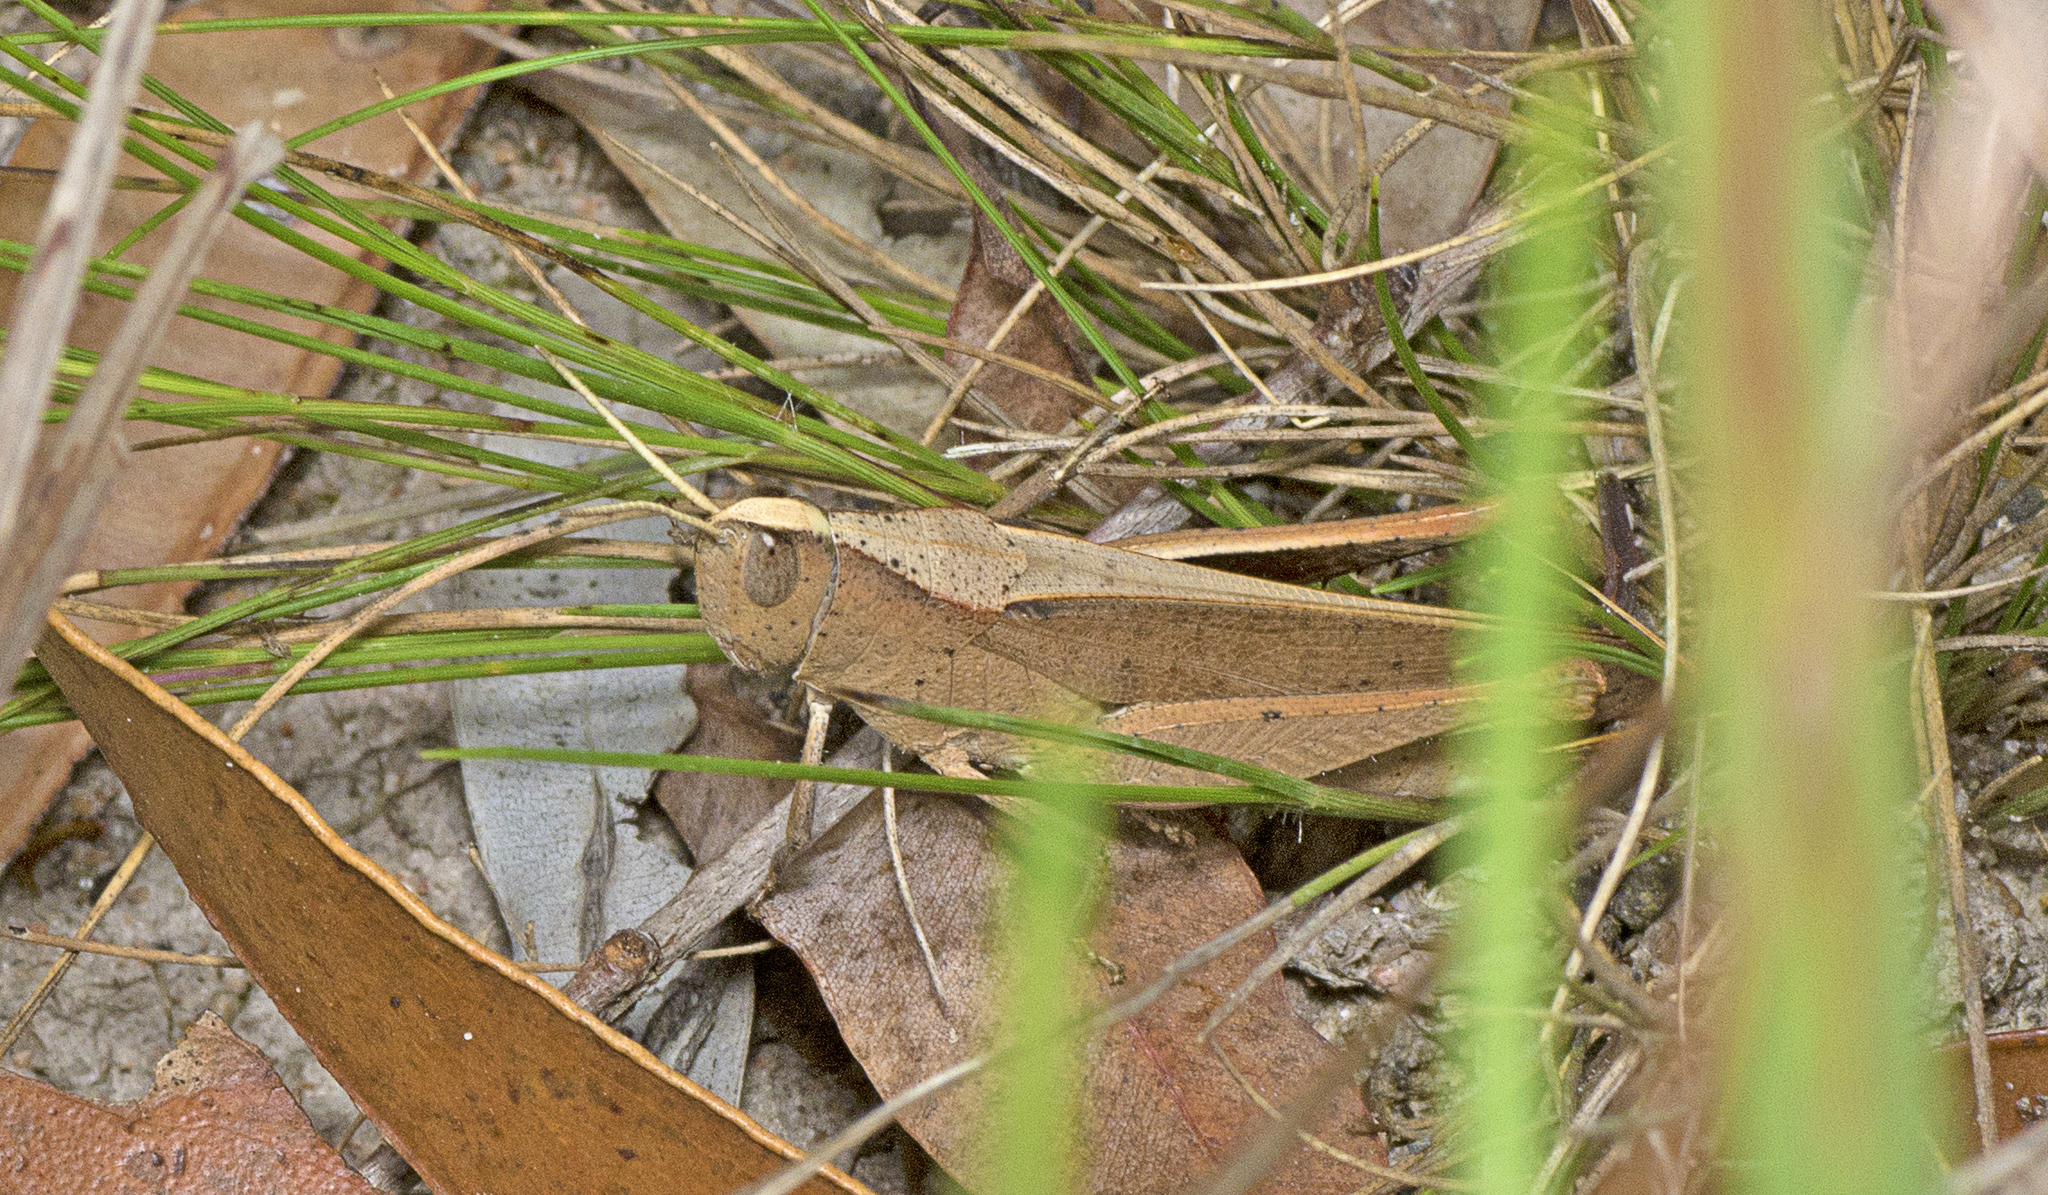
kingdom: Animalia
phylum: Arthropoda
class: Insecta
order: Orthoptera
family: Acrididae
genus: Epallia
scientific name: Epallia exigua
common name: Epallia grasshopper
